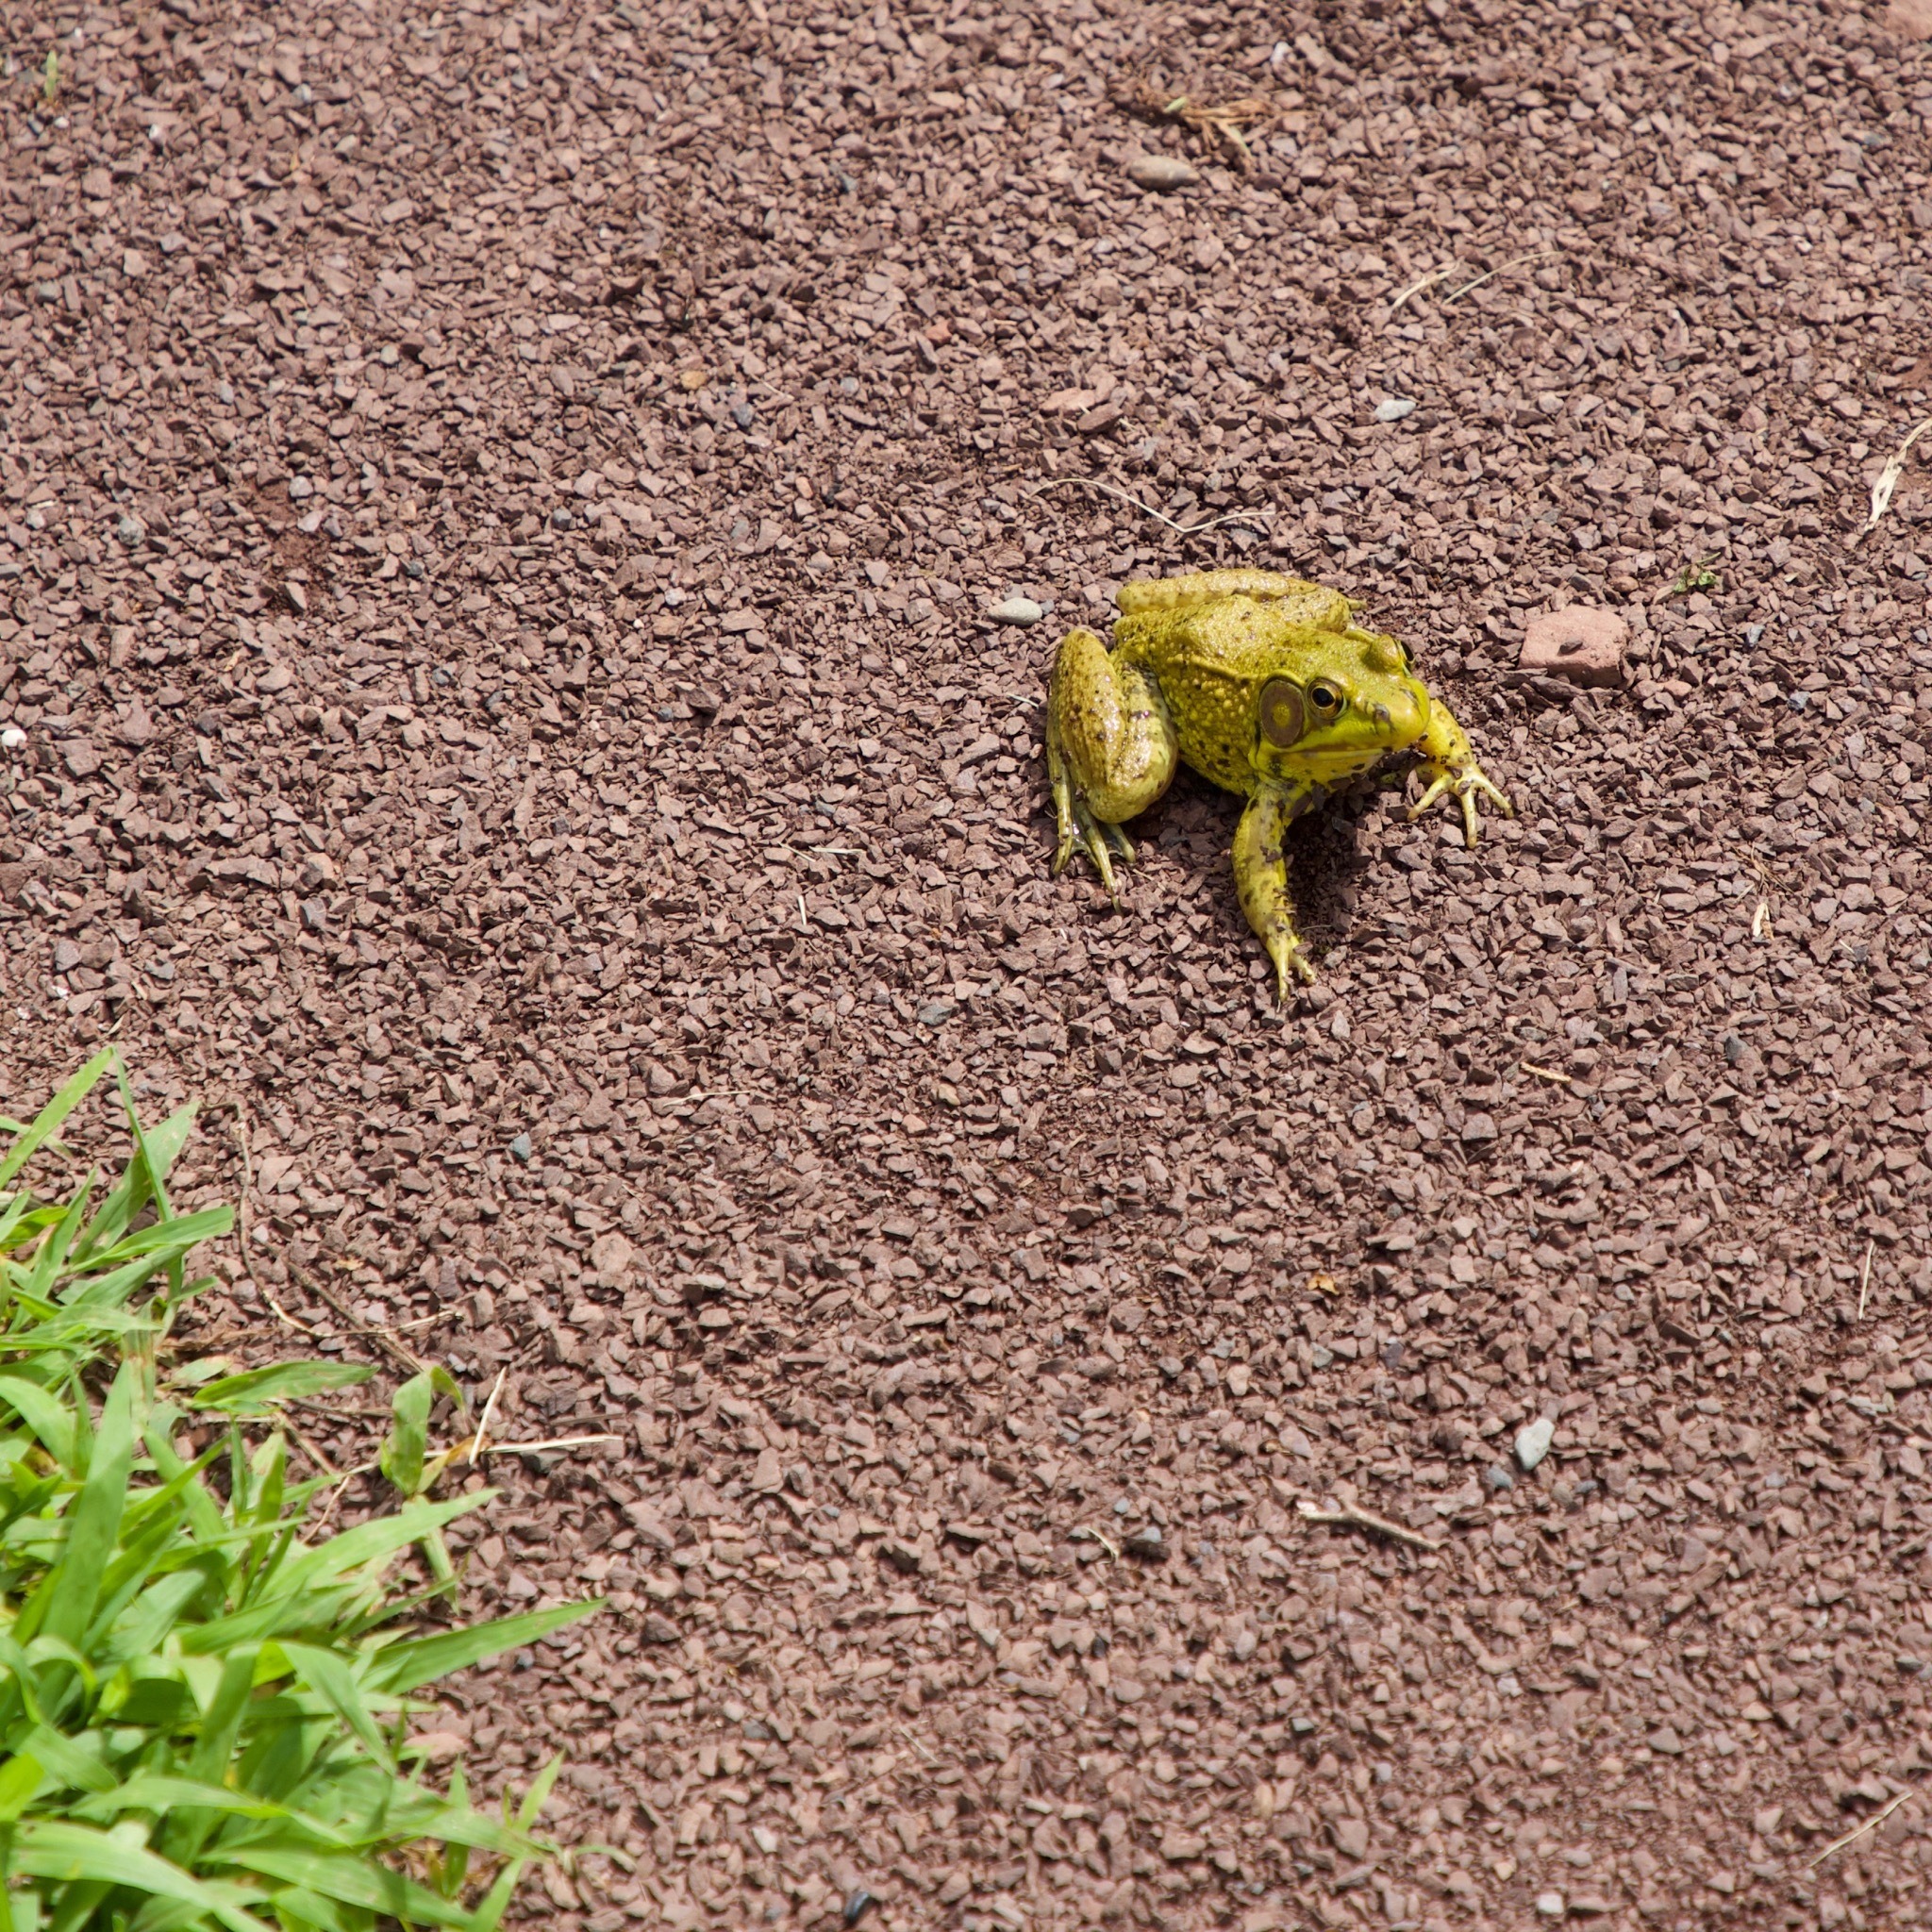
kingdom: Animalia
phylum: Chordata
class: Amphibia
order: Anura
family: Ranidae
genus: Lithobates
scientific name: Lithobates clamitans
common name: Green frog
